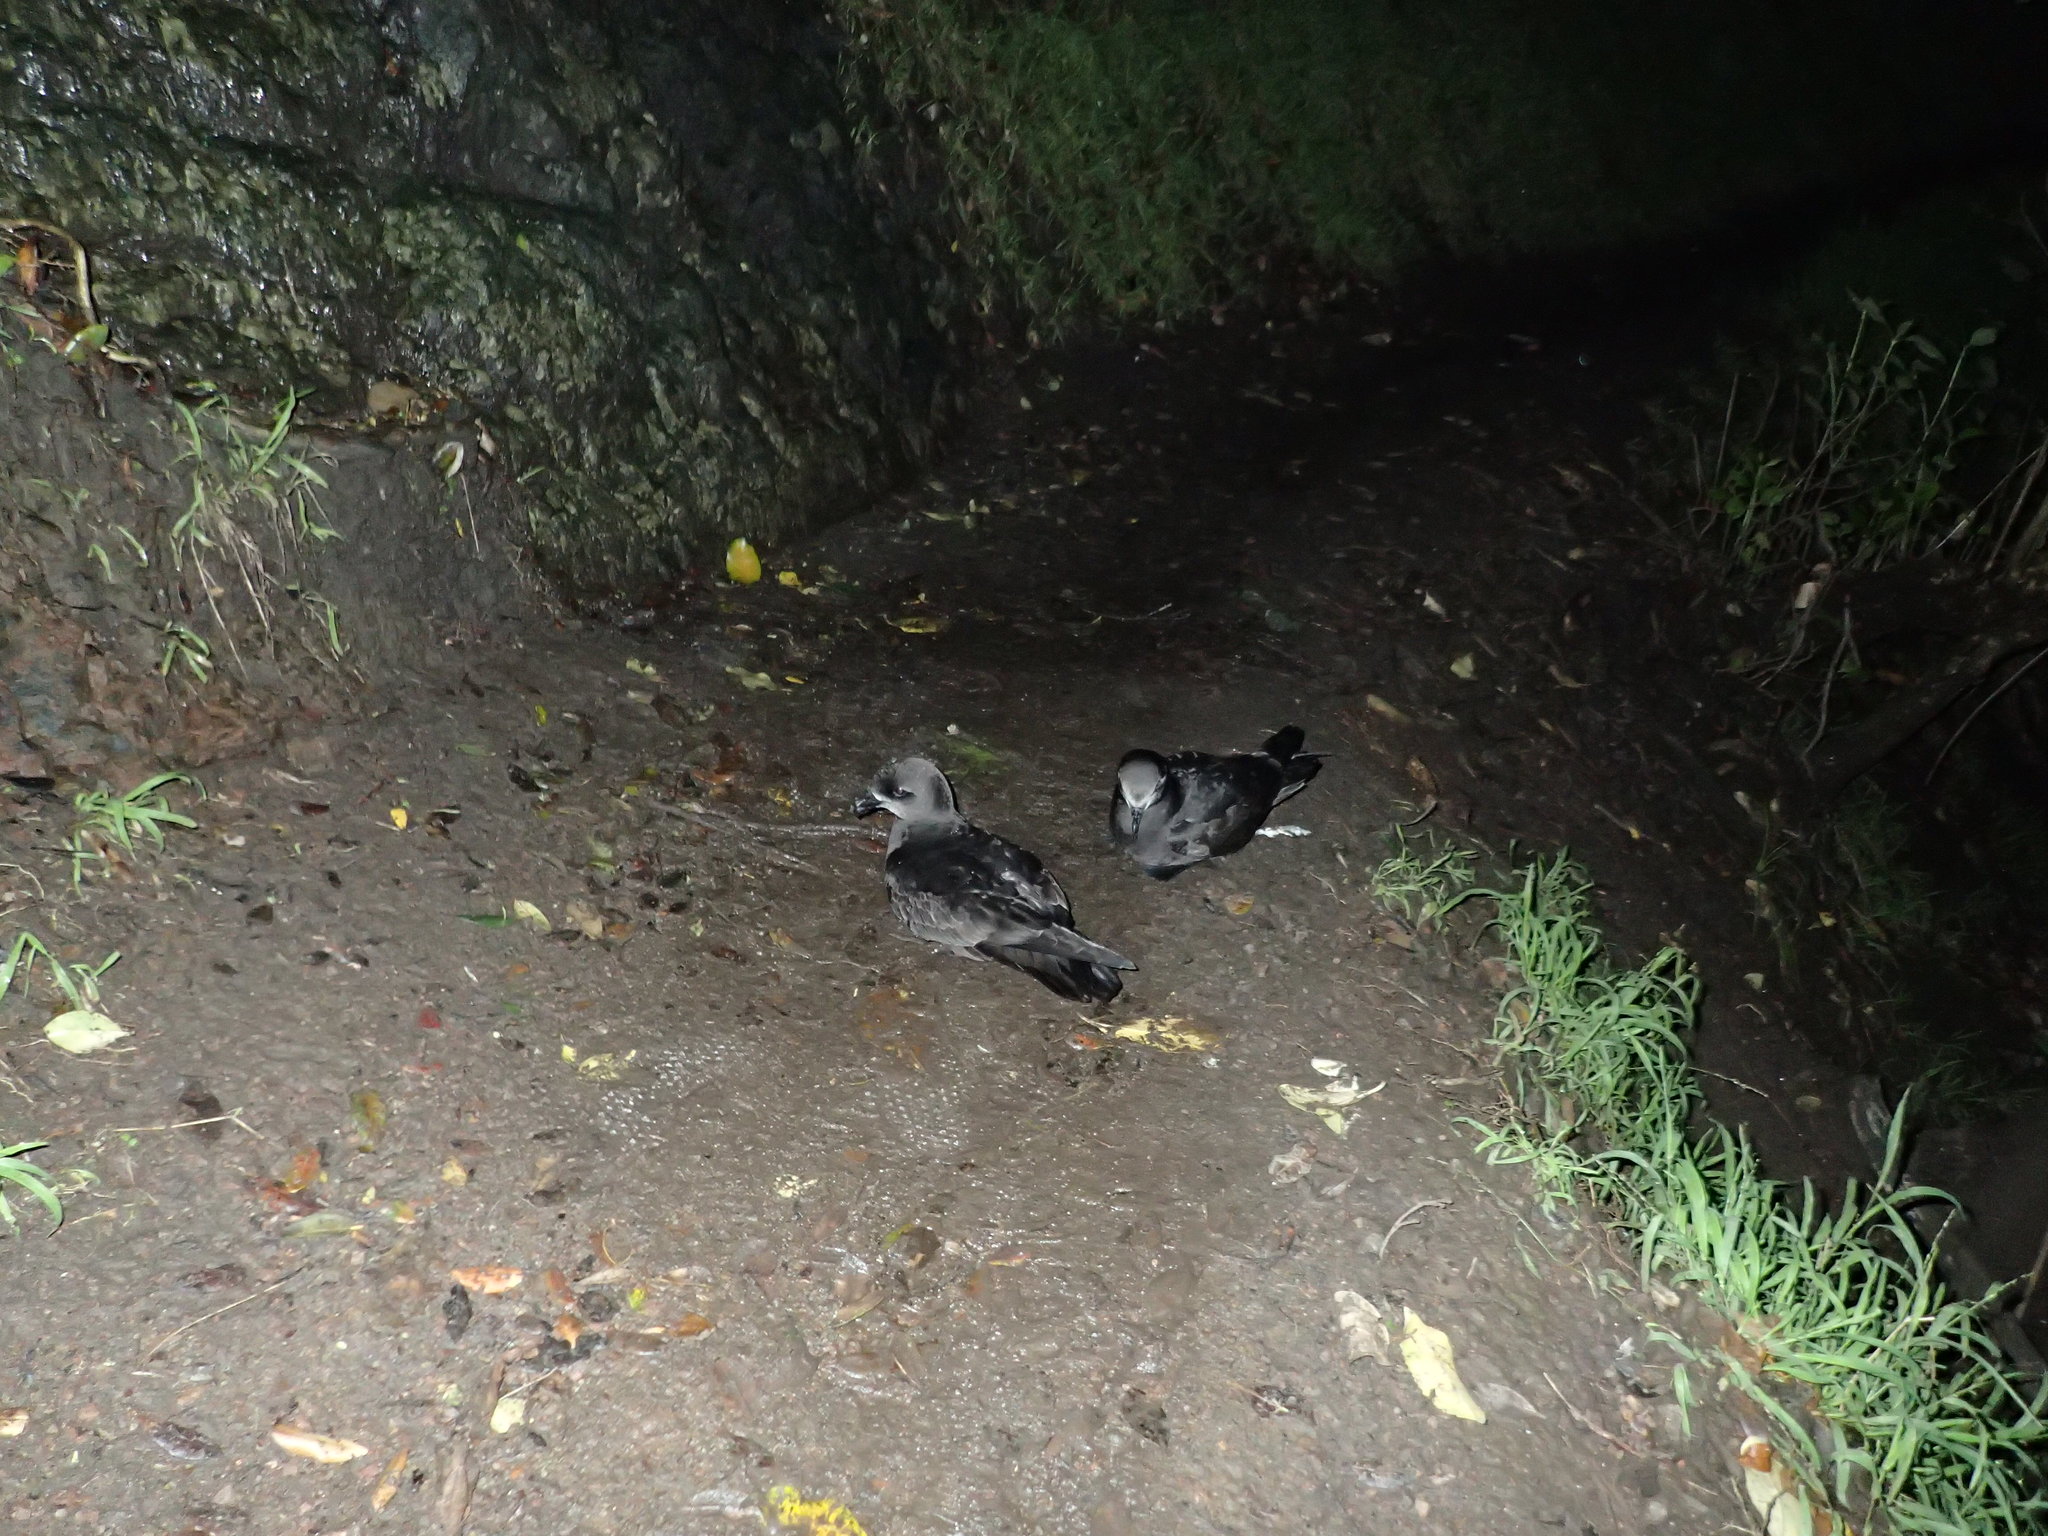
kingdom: Animalia
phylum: Chordata
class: Aves
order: Procellariiformes
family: Procellariidae
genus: Pterodroma
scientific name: Pterodroma macroptera
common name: Great-winged petrel
